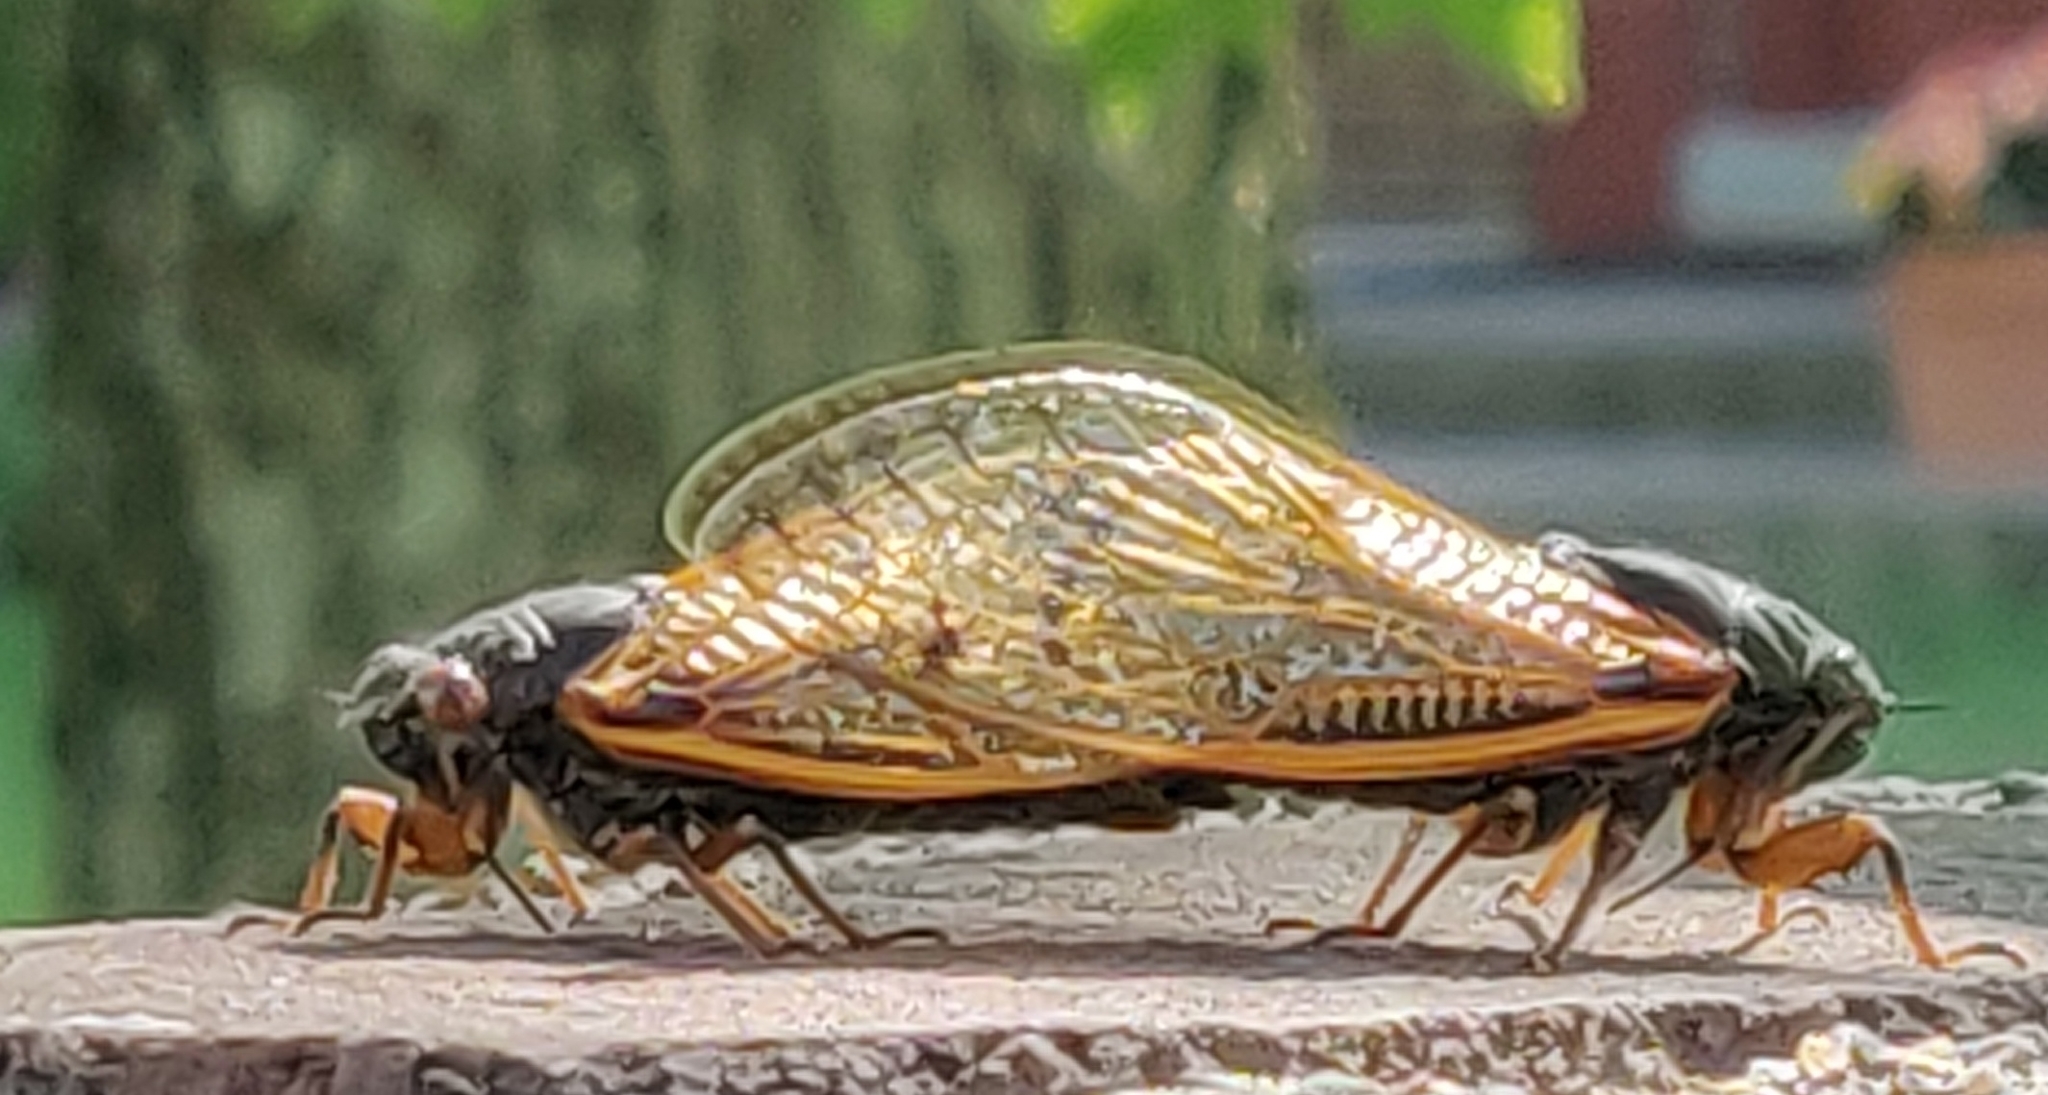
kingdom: Animalia
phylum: Arthropoda
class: Insecta
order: Hemiptera
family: Cicadidae
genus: Magicicada
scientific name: Magicicada
